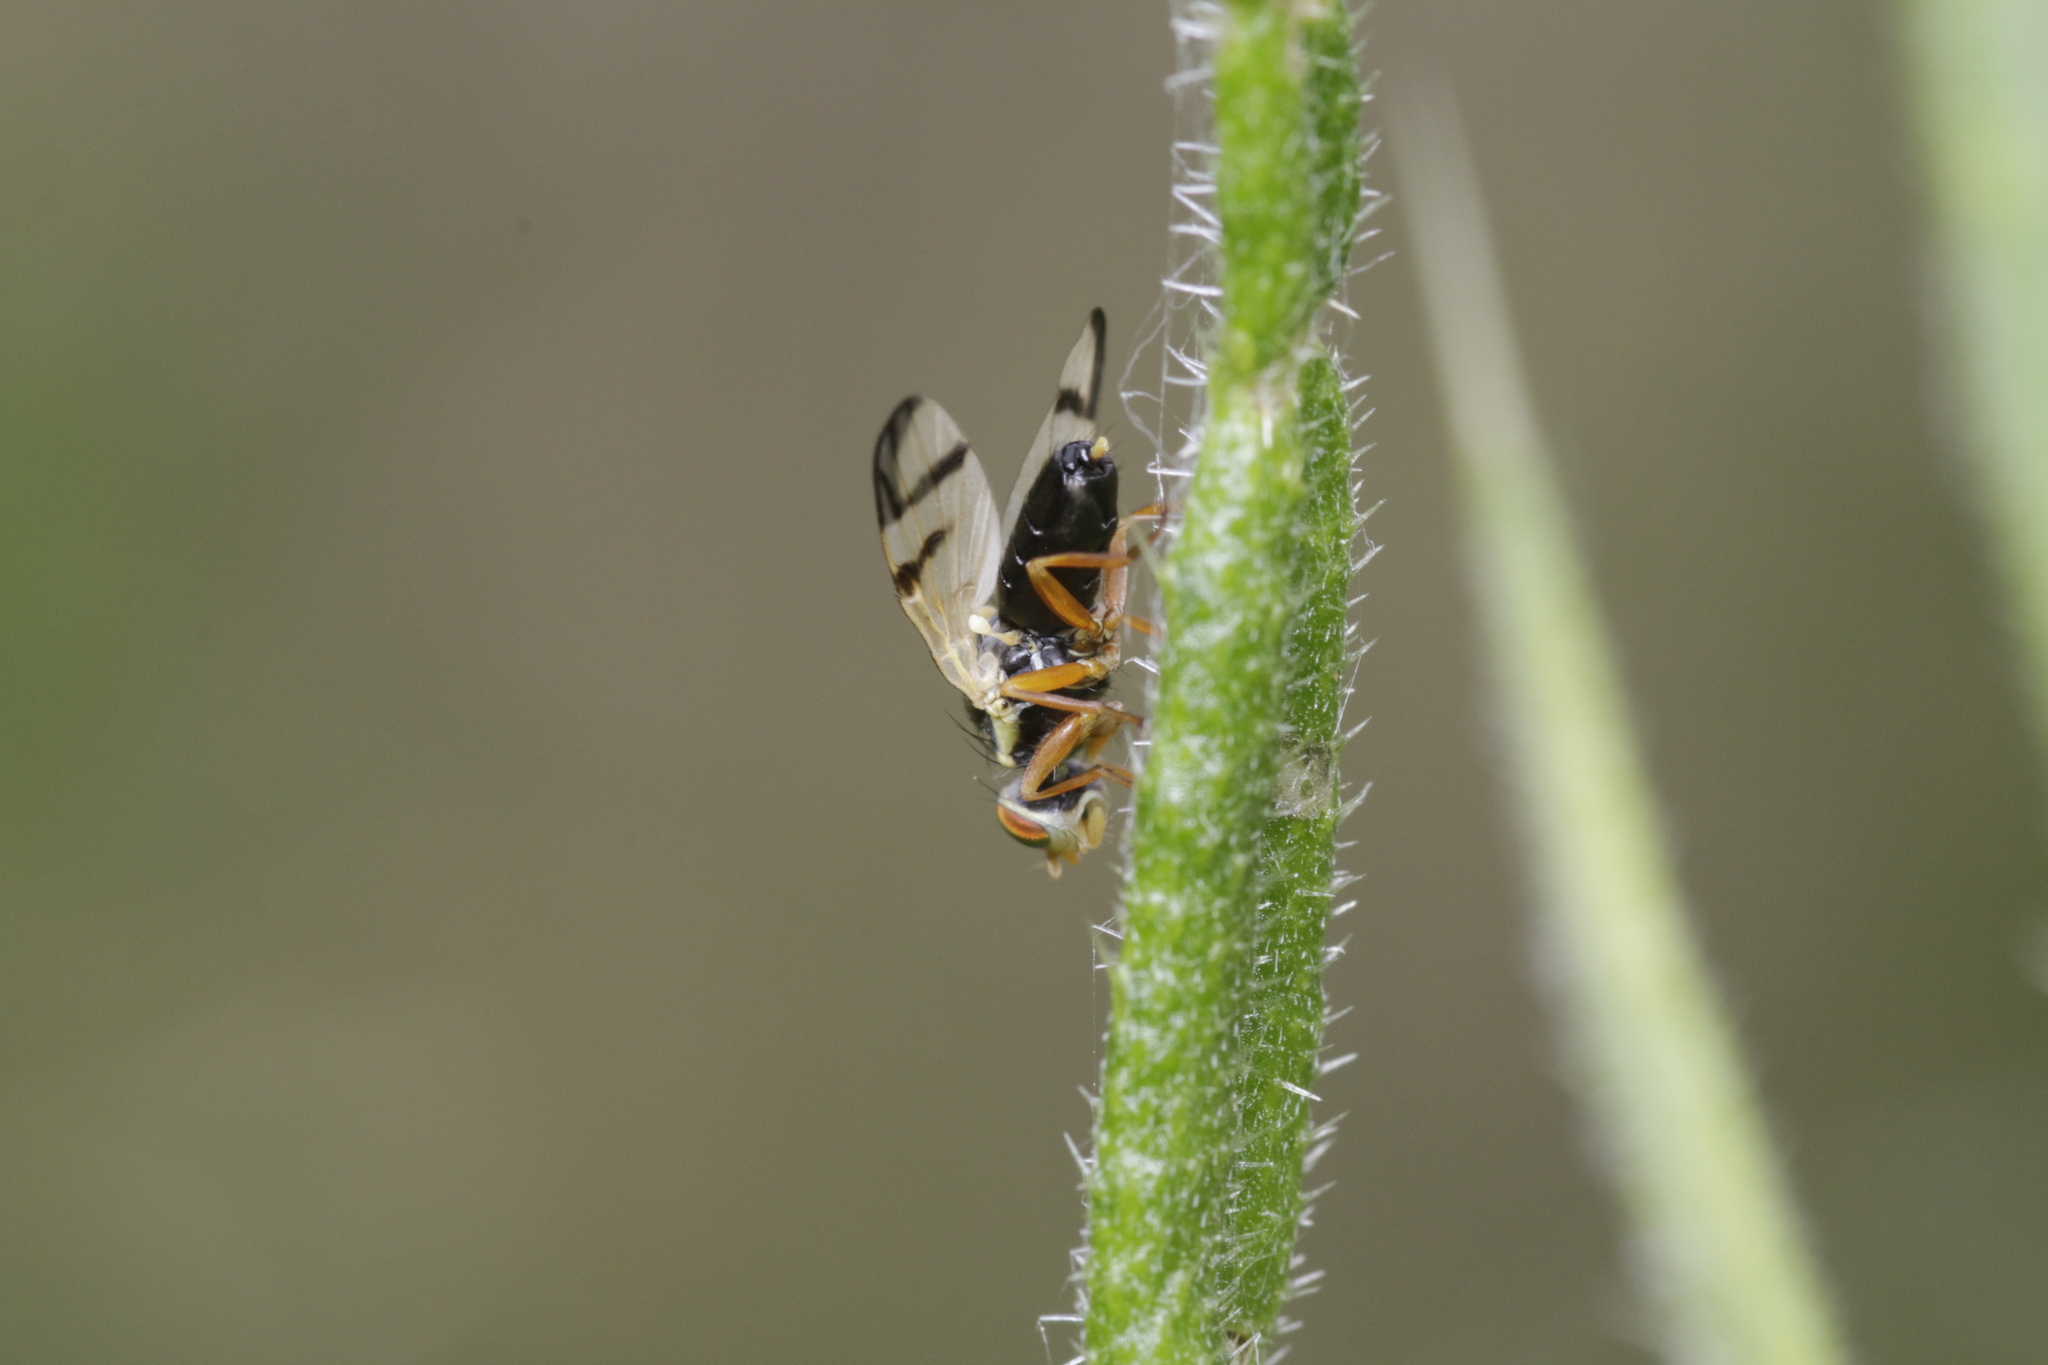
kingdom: Animalia
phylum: Arthropoda
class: Insecta
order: Diptera
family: Tephritidae
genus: Urophora
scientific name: Urophora stylata
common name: Fruit fly
